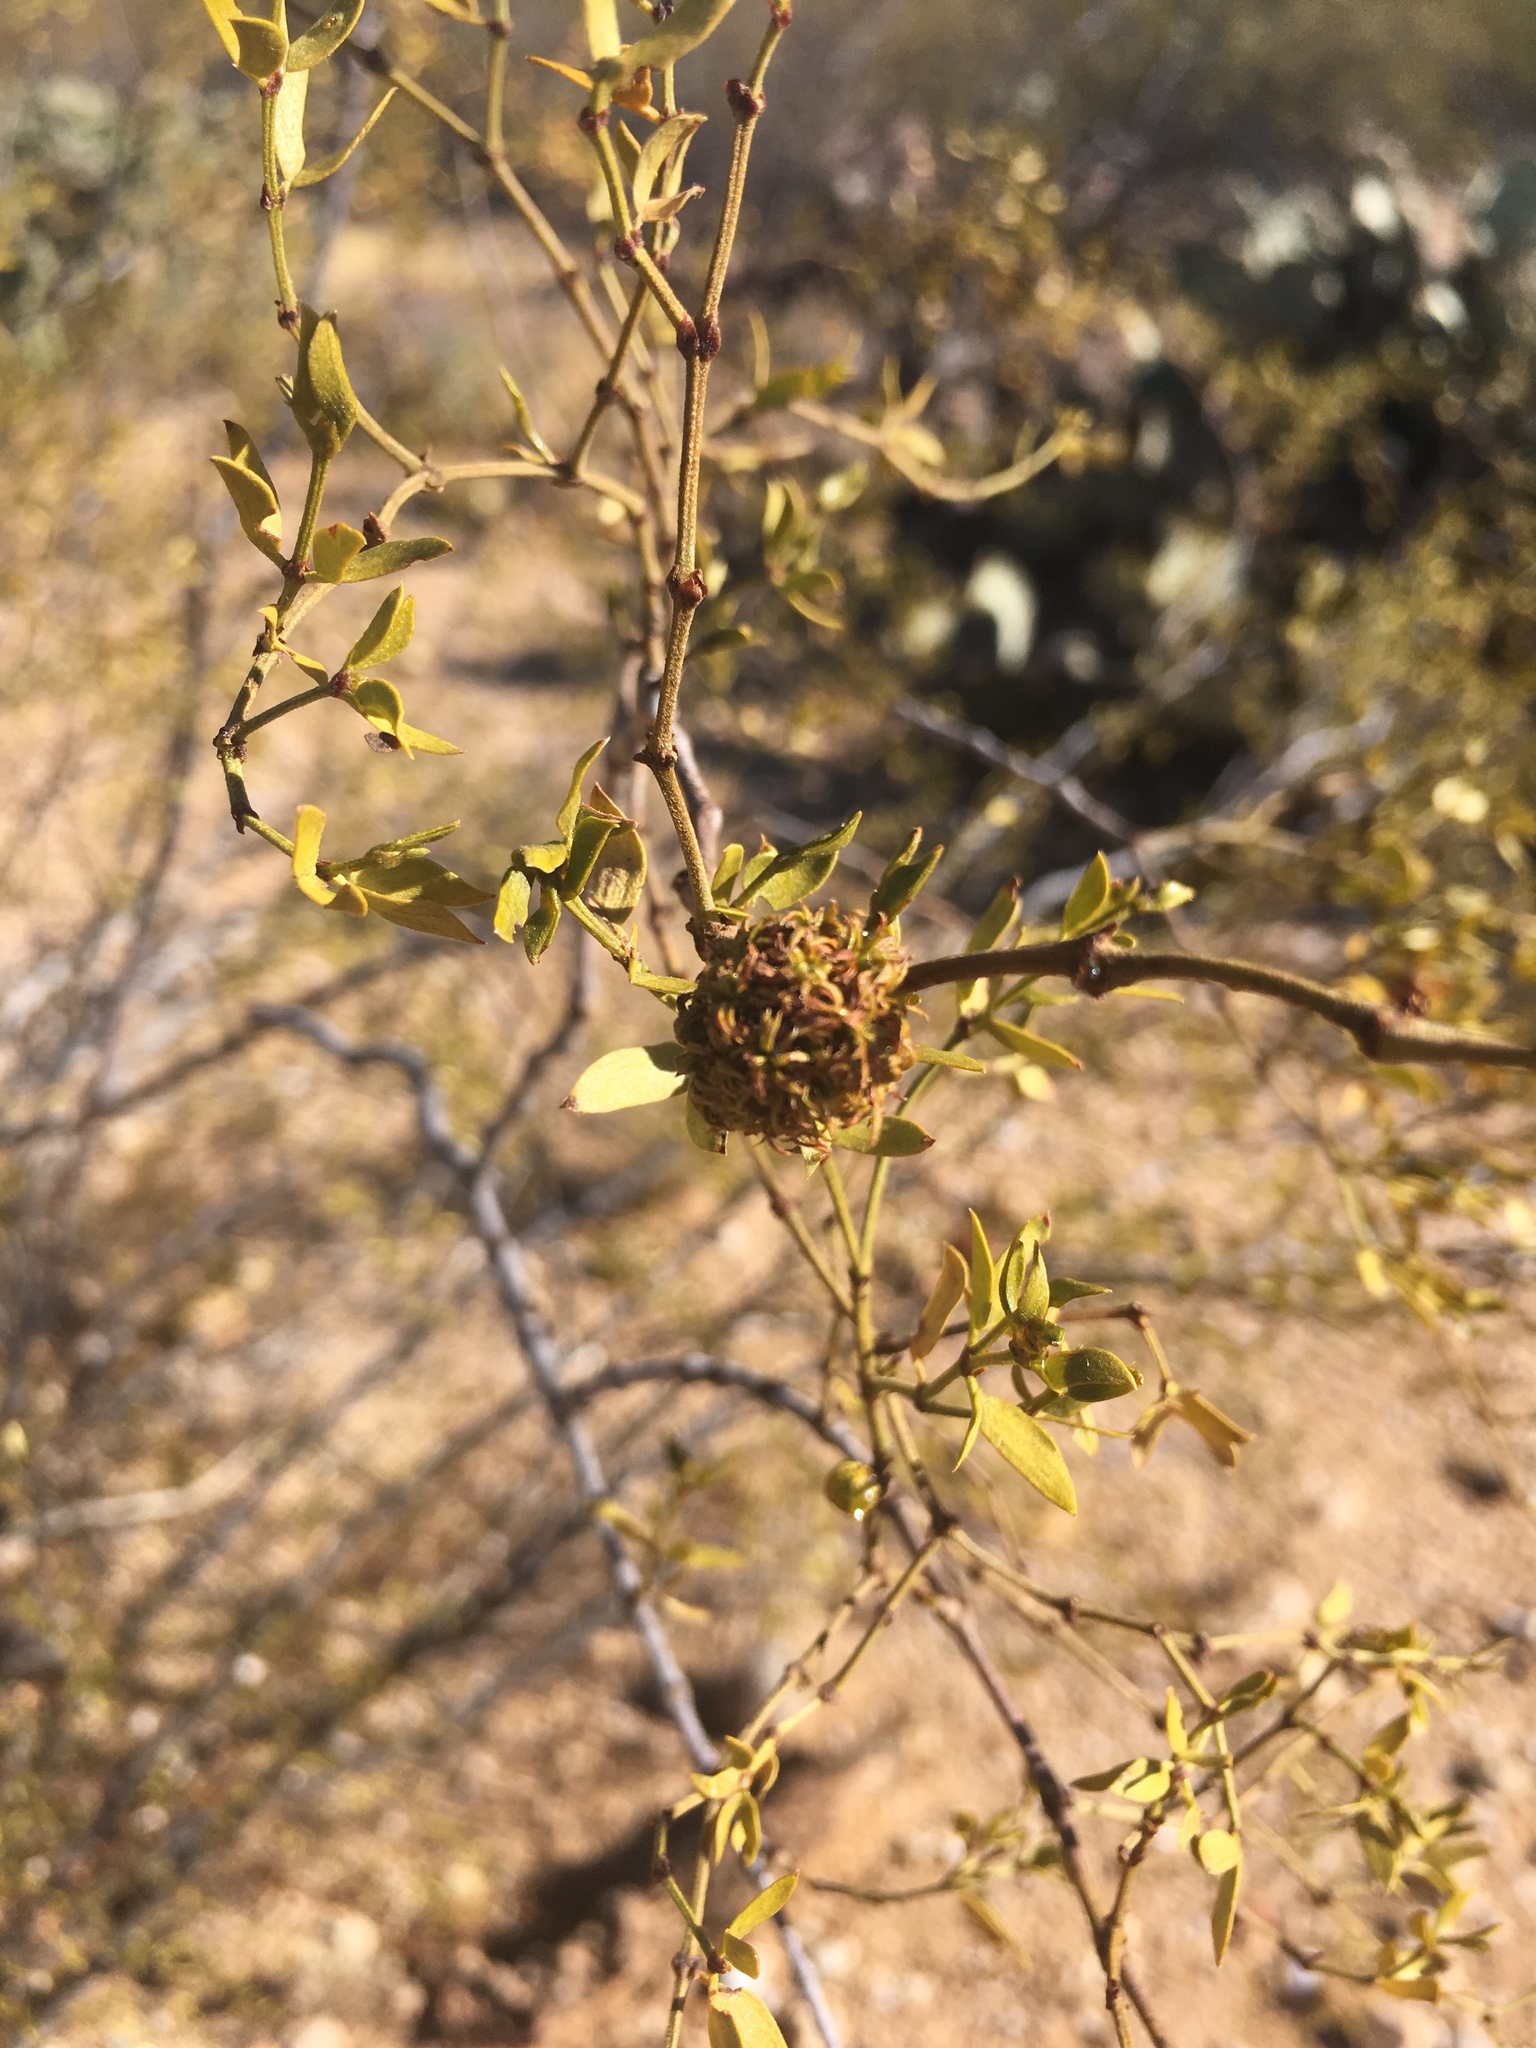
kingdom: Animalia
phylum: Arthropoda
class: Insecta
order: Diptera
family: Cecidomyiidae
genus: Asphondylia
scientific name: Asphondylia auripila
